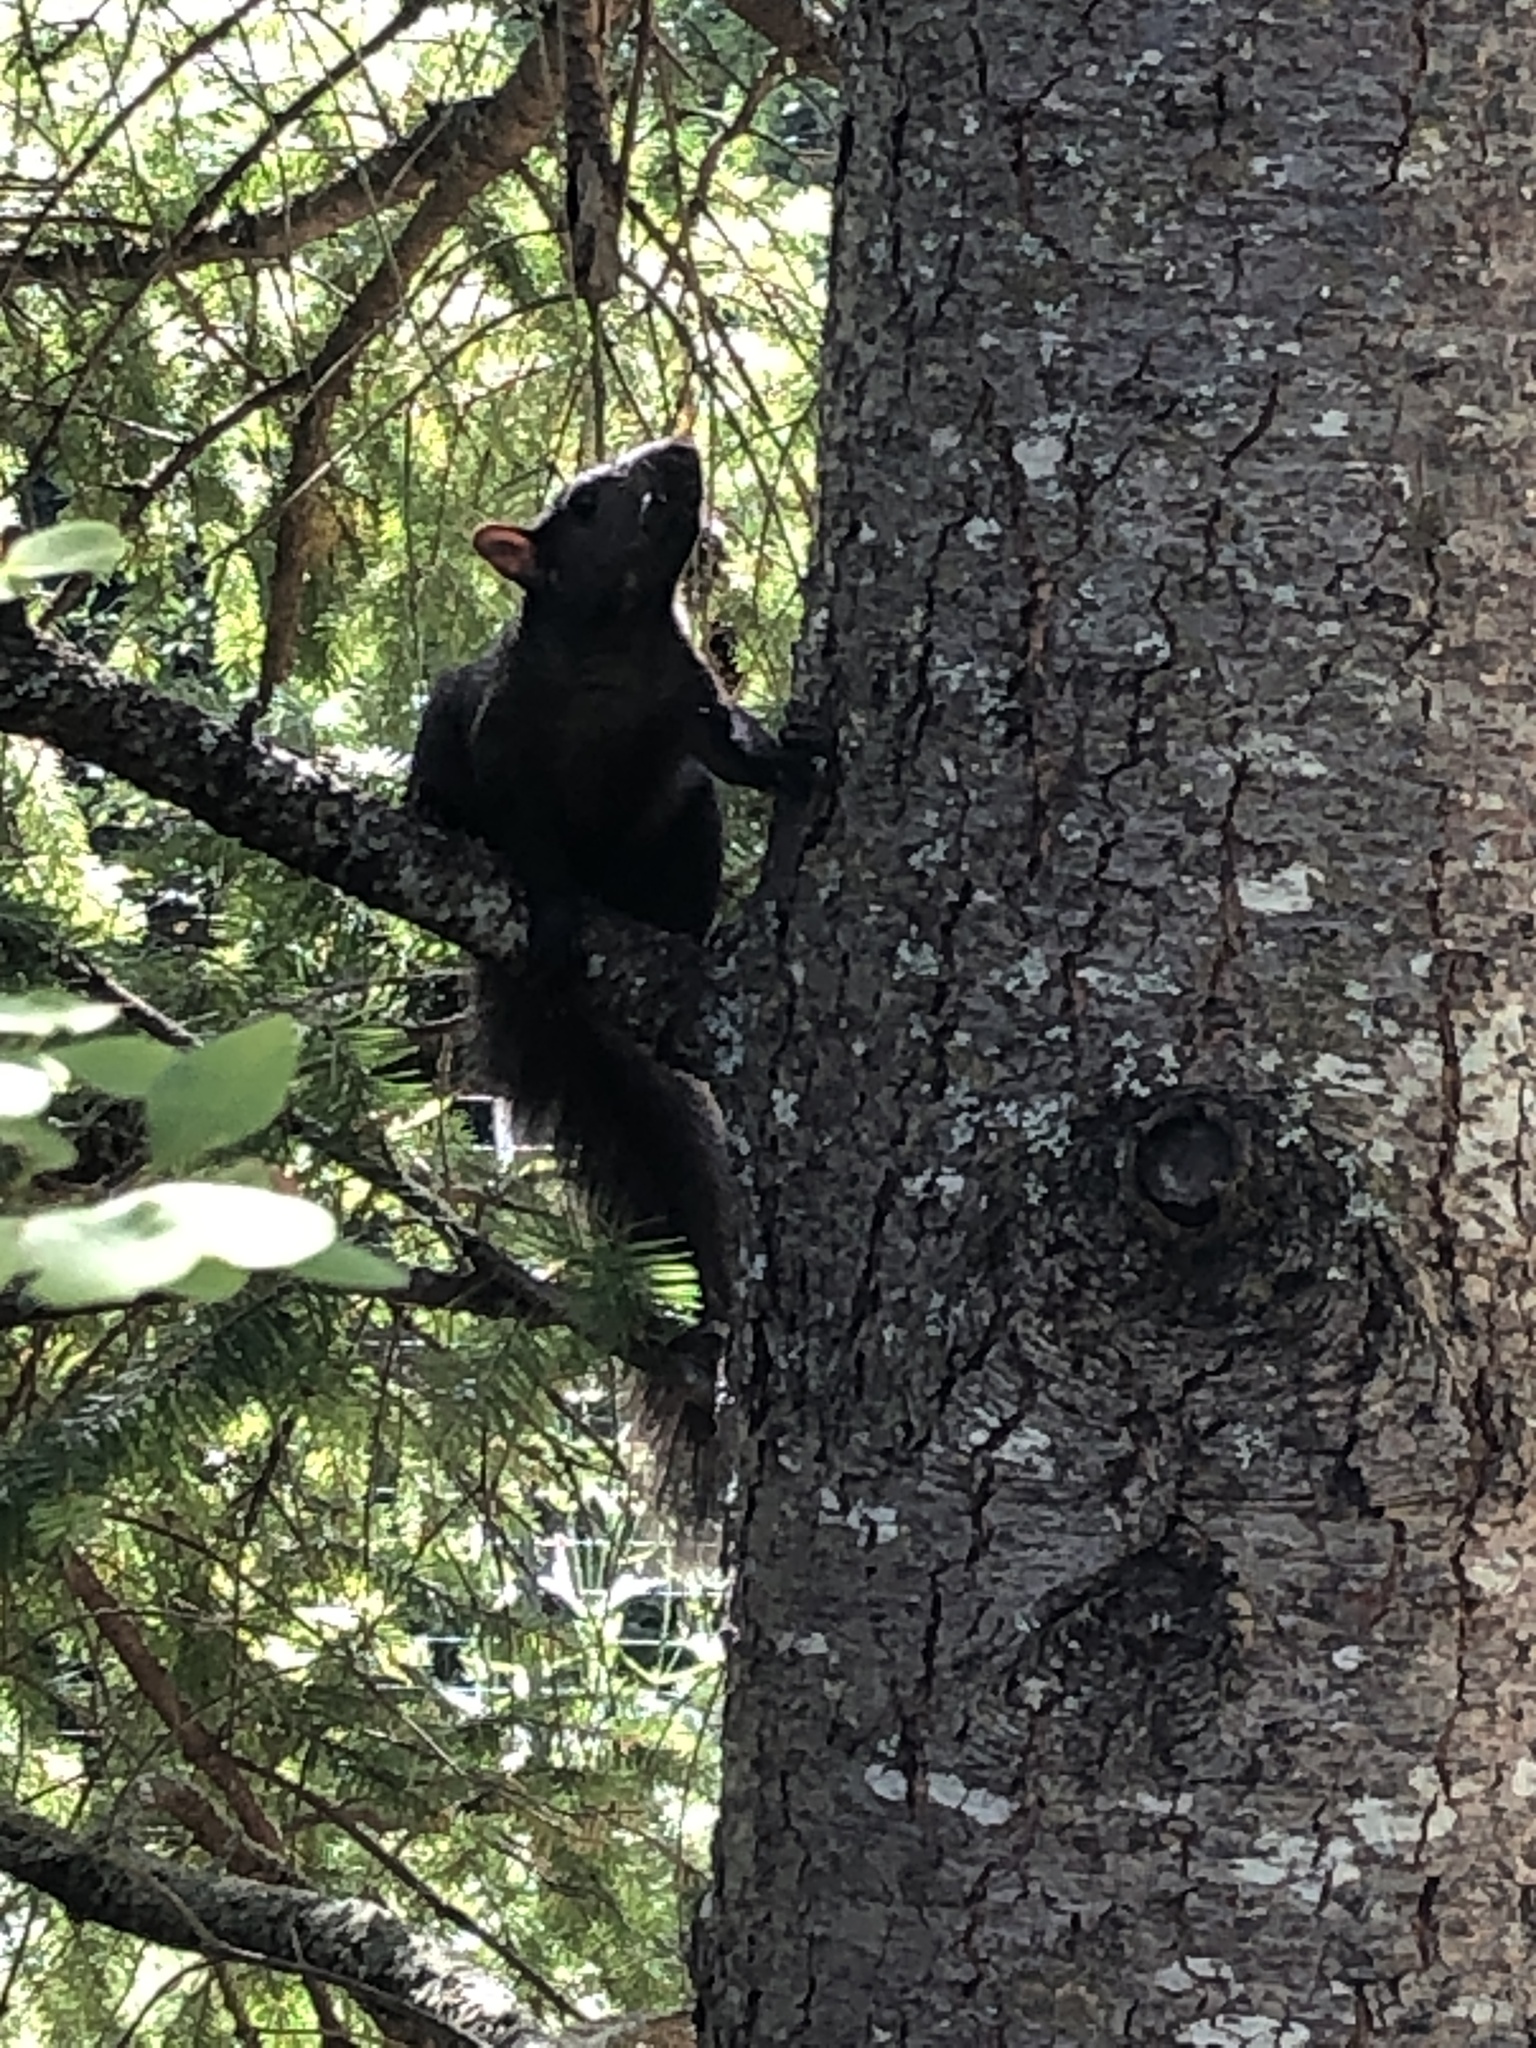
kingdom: Animalia
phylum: Chordata
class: Mammalia
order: Rodentia
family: Sciuridae
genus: Sciurus
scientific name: Sciurus carolinensis
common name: Eastern gray squirrel
